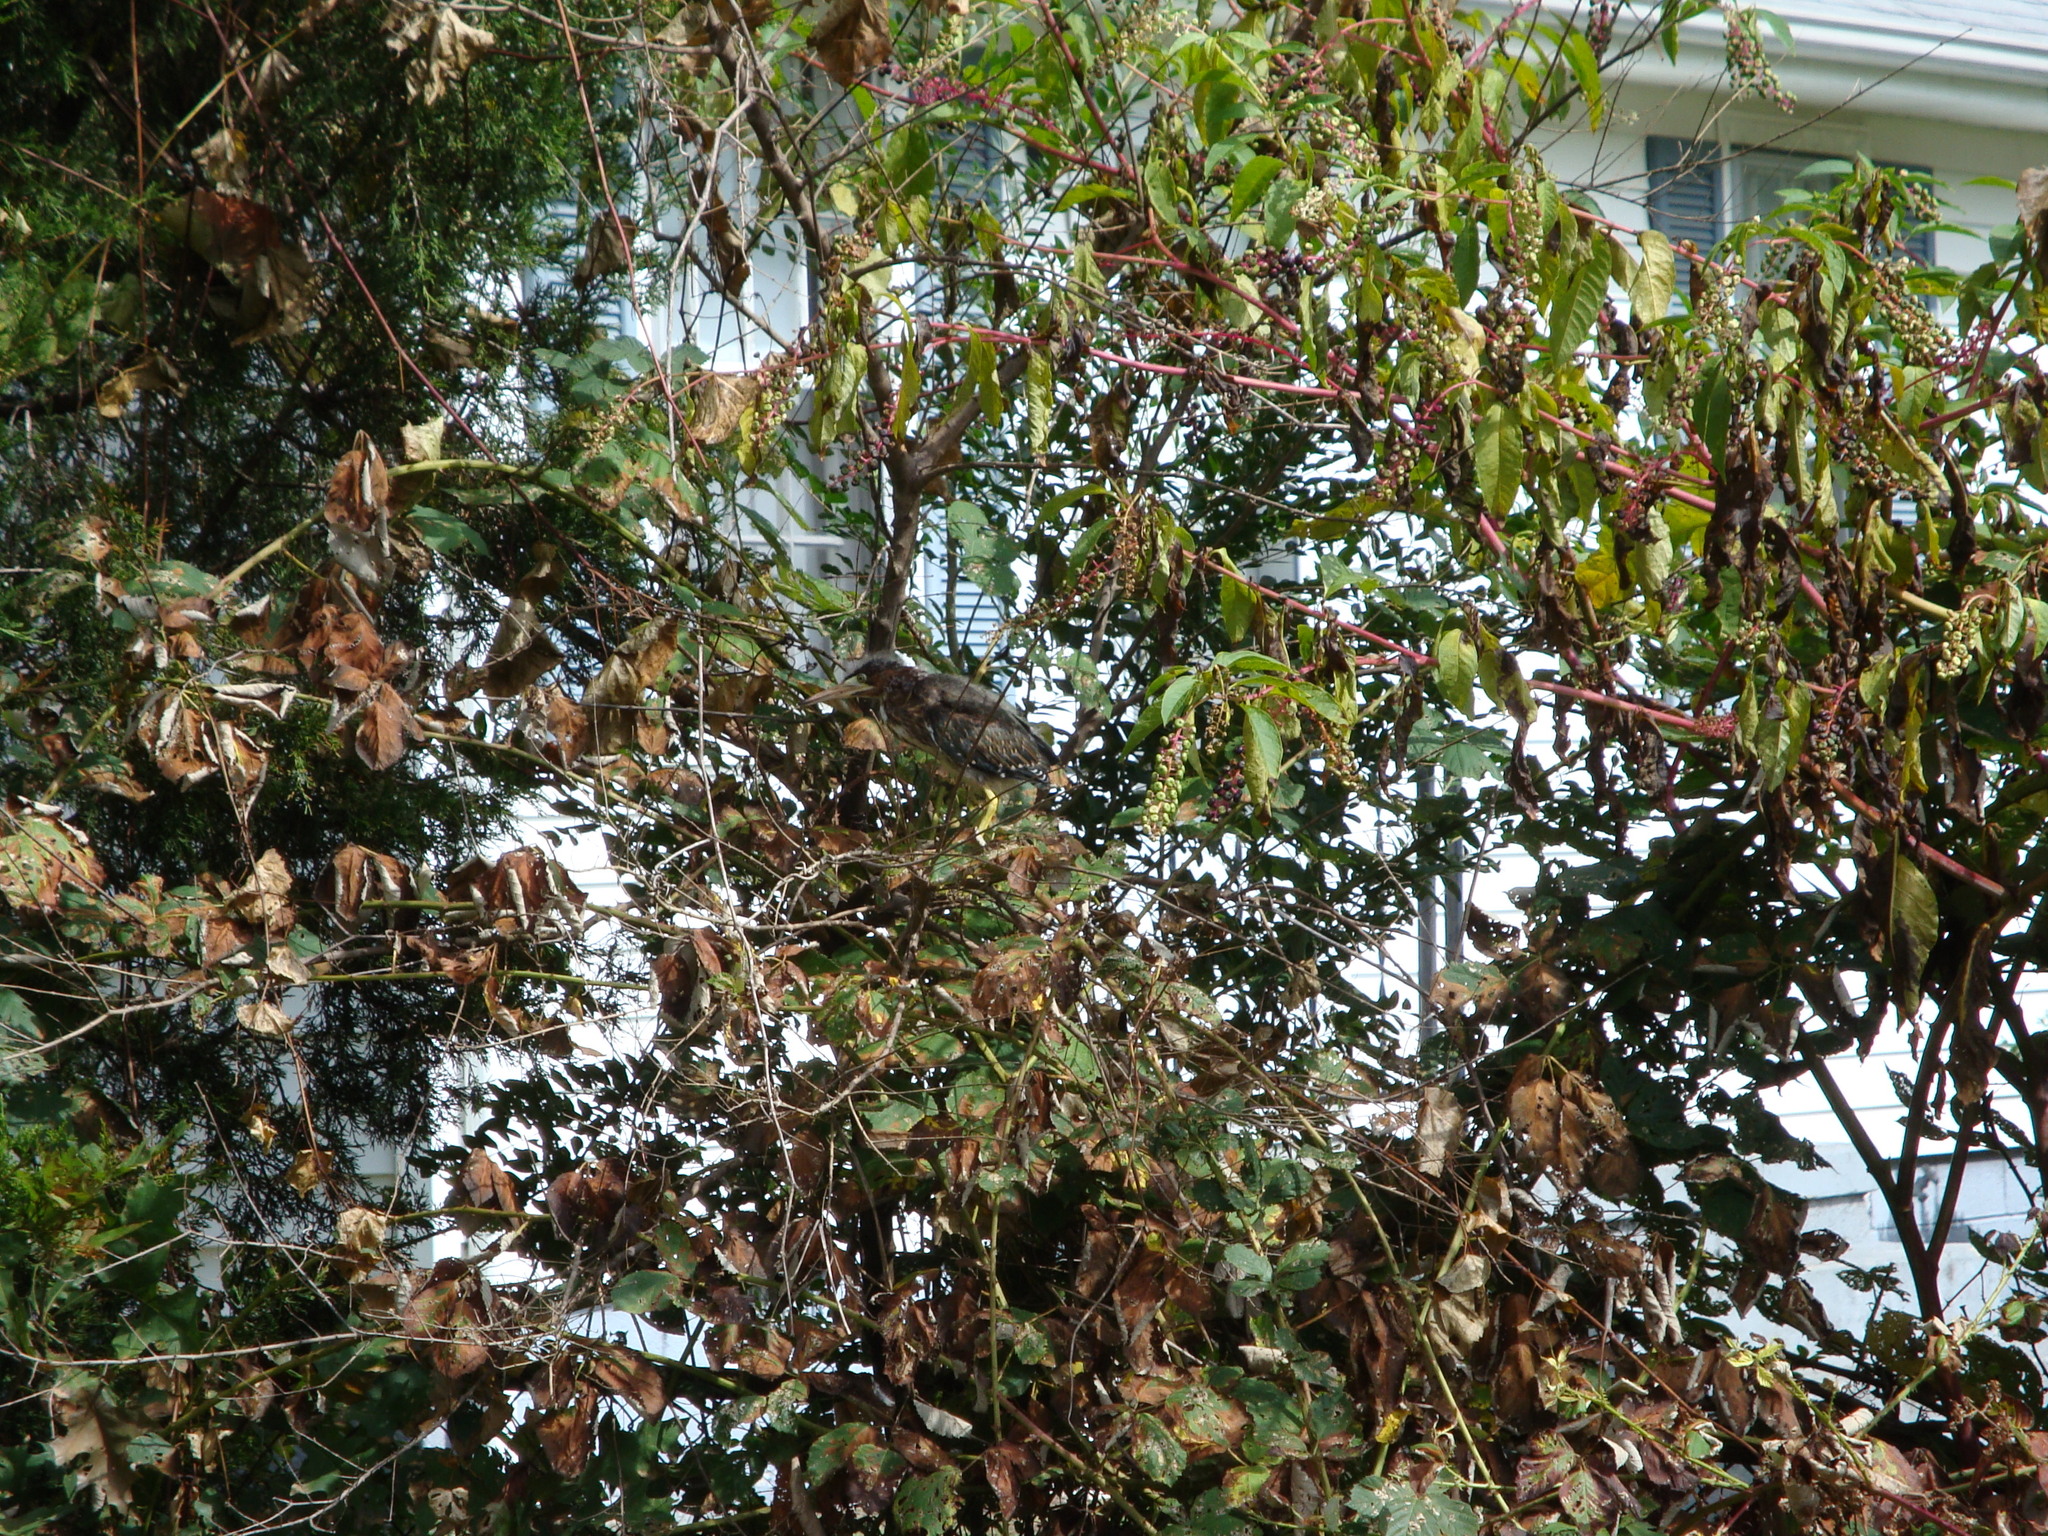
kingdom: Animalia
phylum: Chordata
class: Aves
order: Pelecaniformes
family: Ardeidae
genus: Butorides
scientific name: Butorides virescens
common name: Green heron
